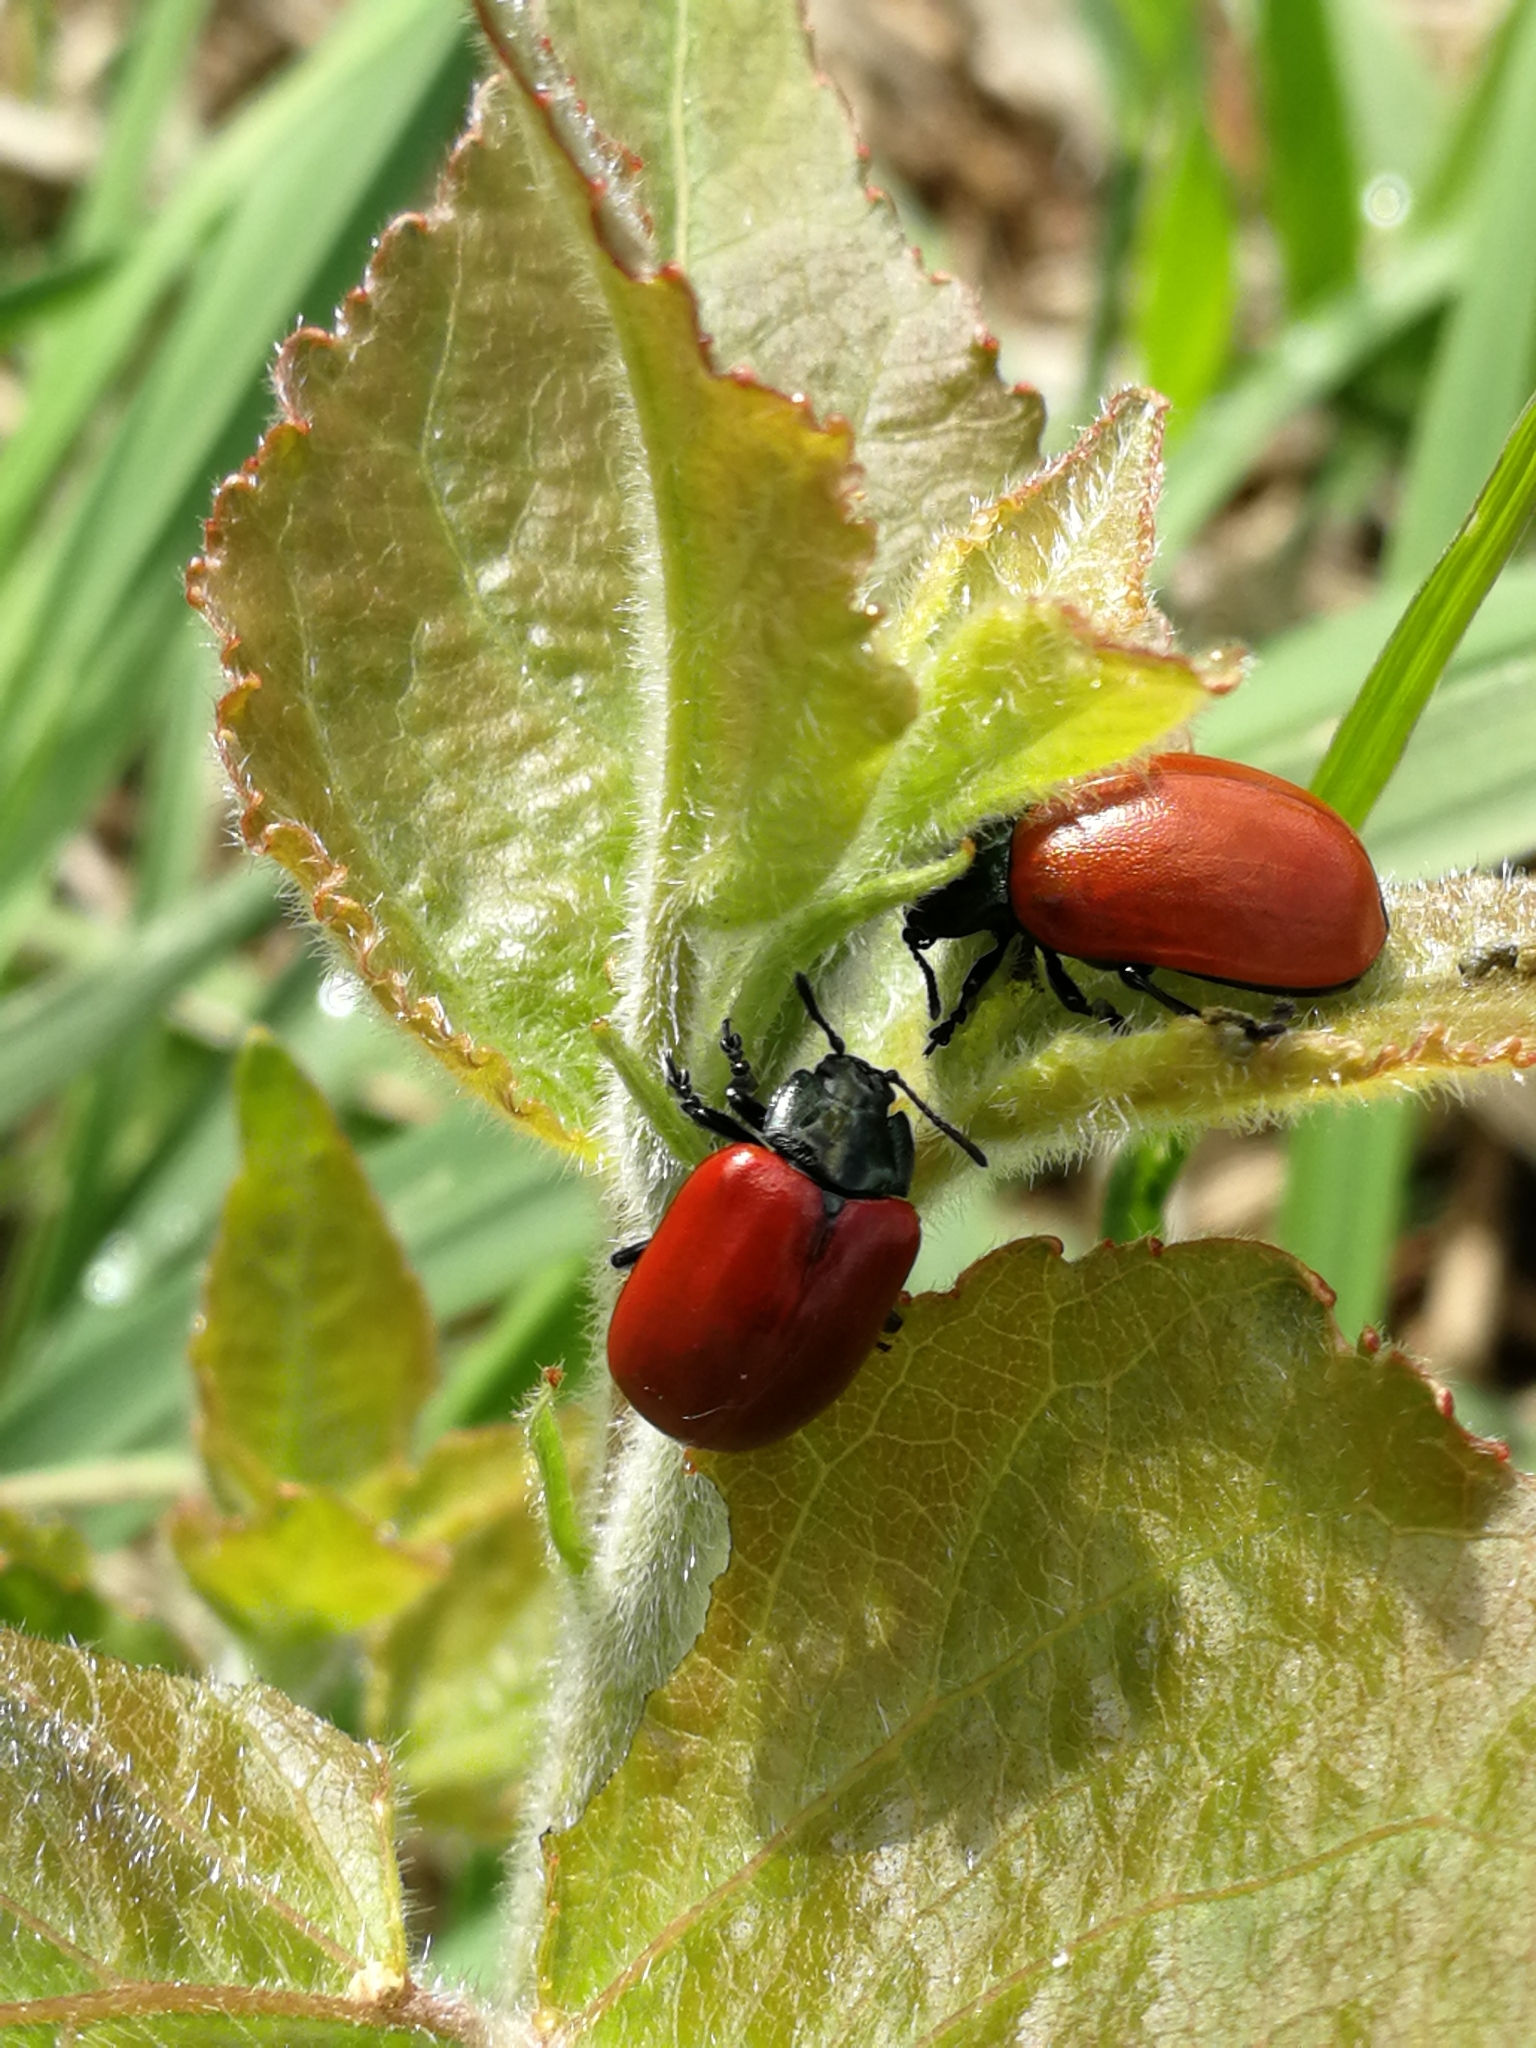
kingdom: Animalia
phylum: Arthropoda
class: Insecta
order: Coleoptera
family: Chrysomelidae
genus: Chrysomela
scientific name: Chrysomela populi
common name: Red poplar leaf beetle
